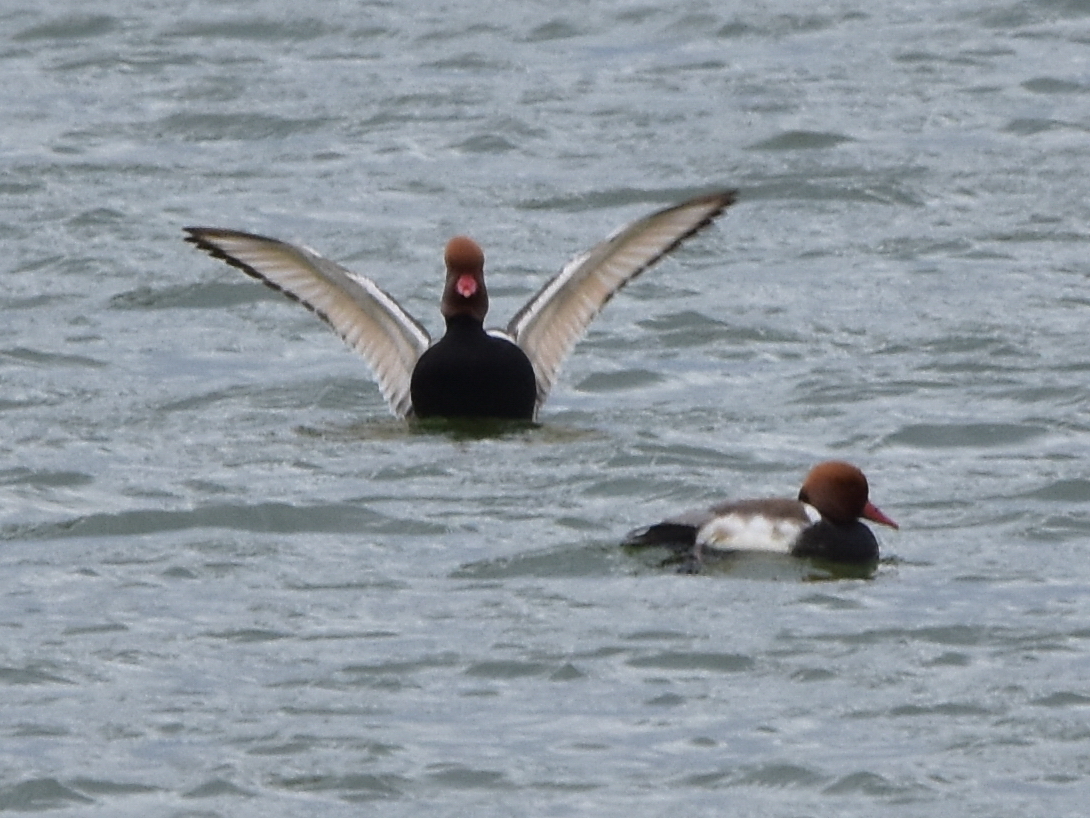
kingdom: Animalia
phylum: Chordata
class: Aves
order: Anseriformes
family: Anatidae
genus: Netta
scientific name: Netta rufina
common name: Red-crested pochard
